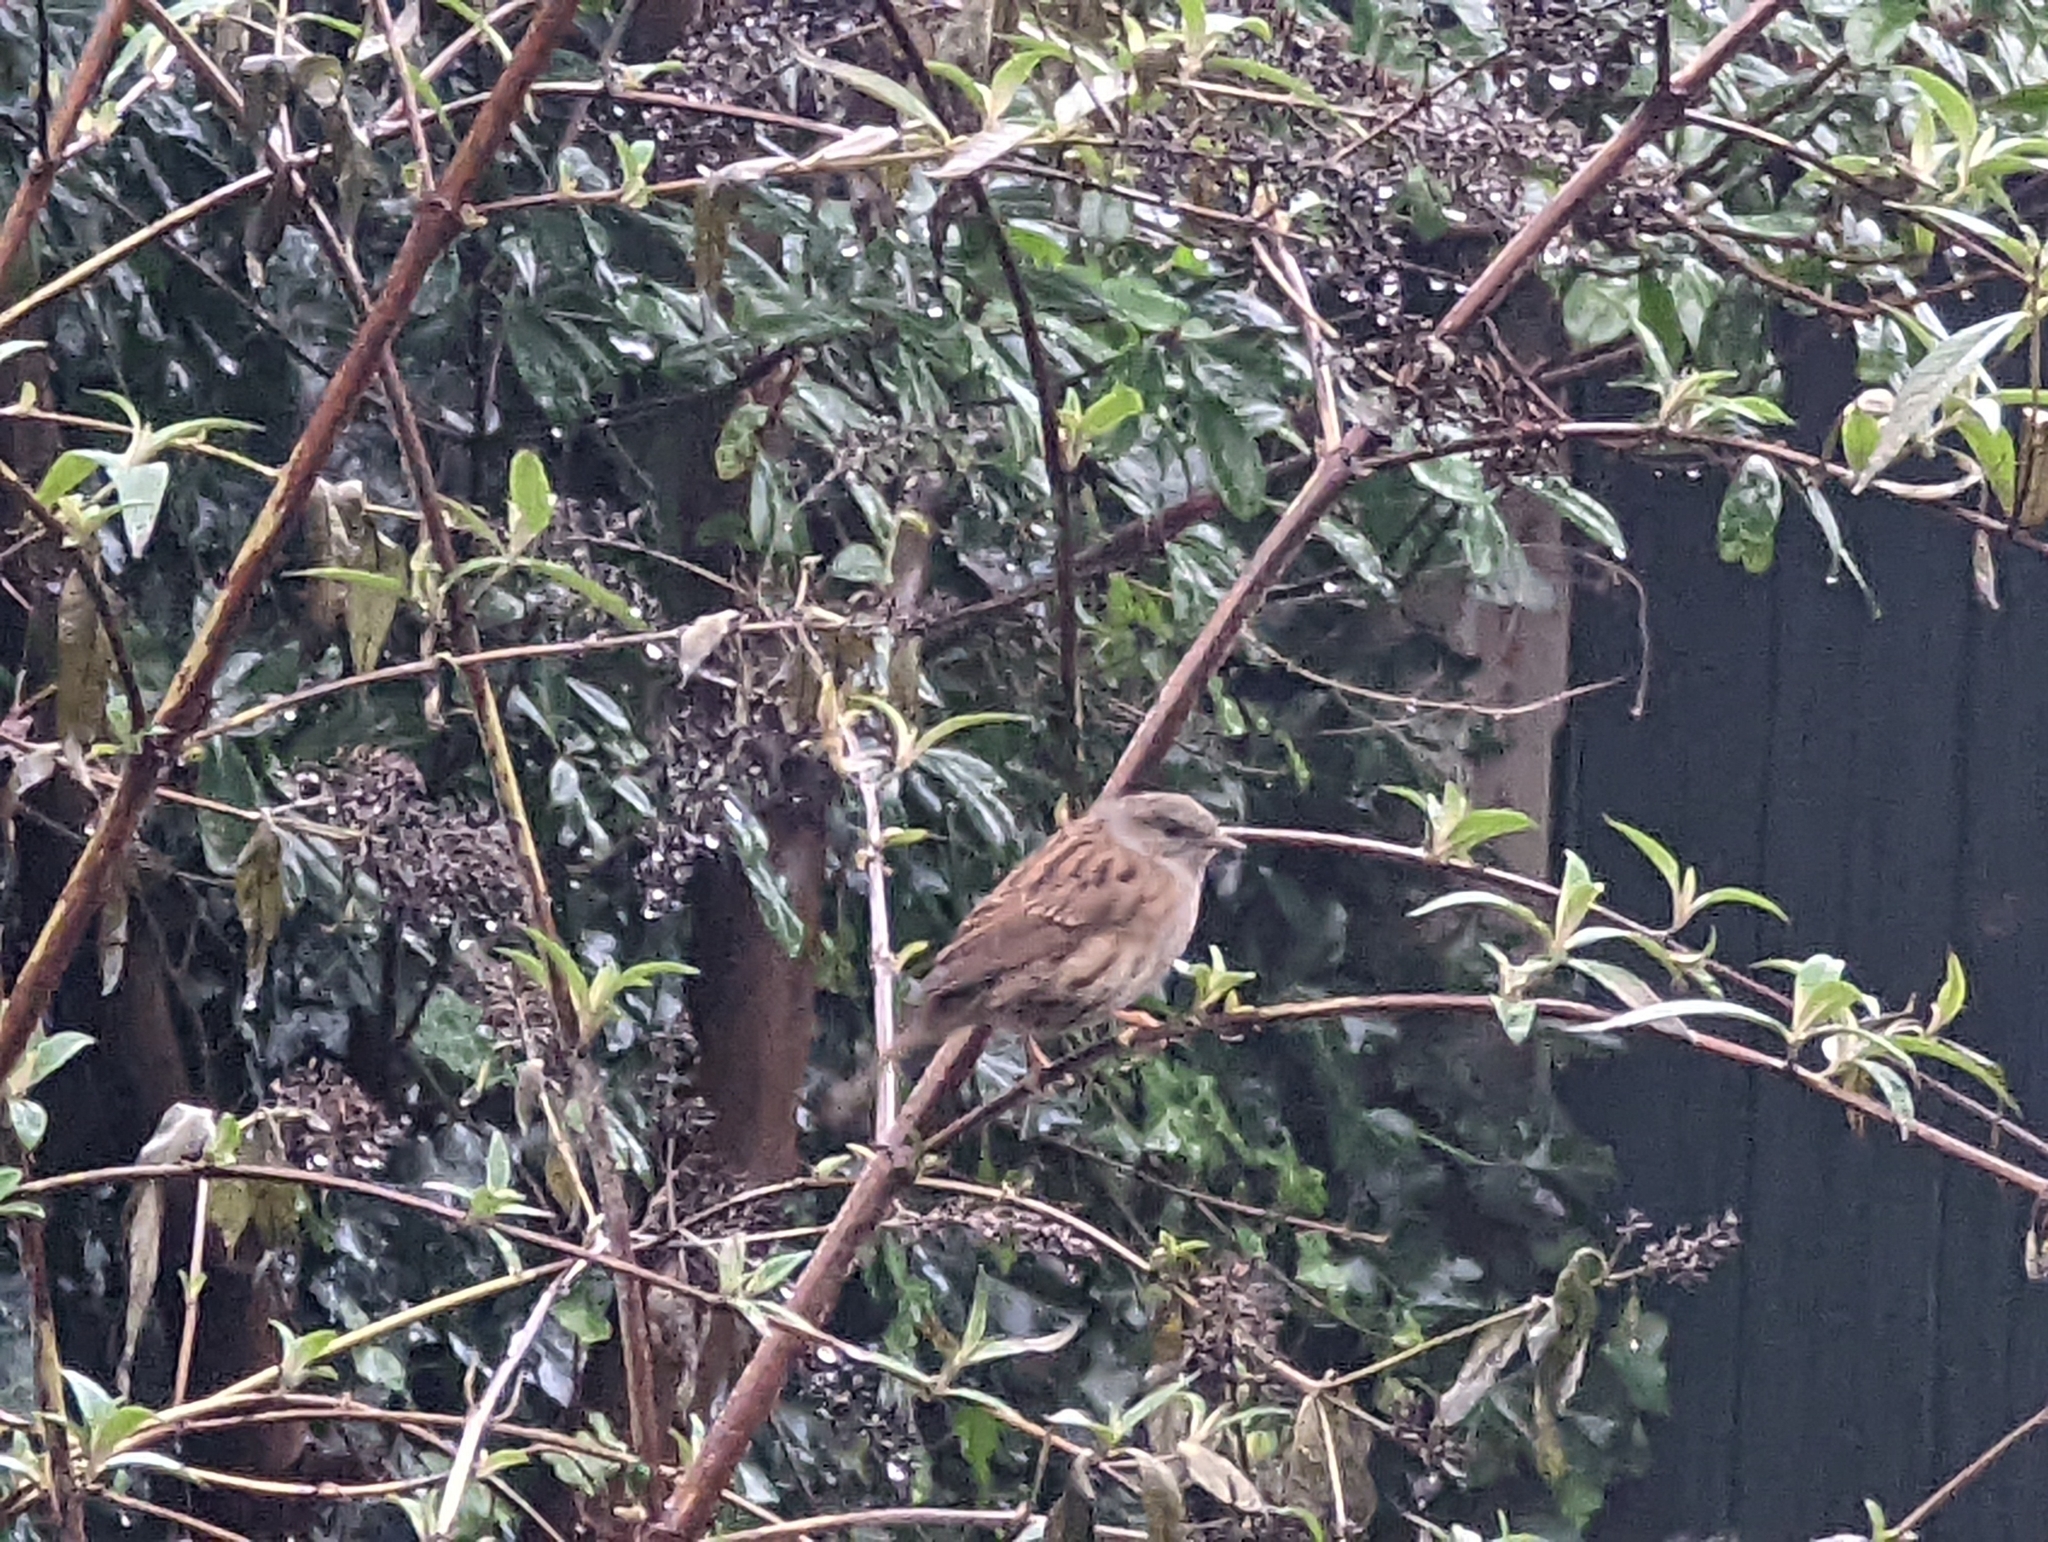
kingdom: Animalia
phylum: Chordata
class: Aves
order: Passeriformes
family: Prunellidae
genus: Prunella
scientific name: Prunella modularis
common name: Dunnock
